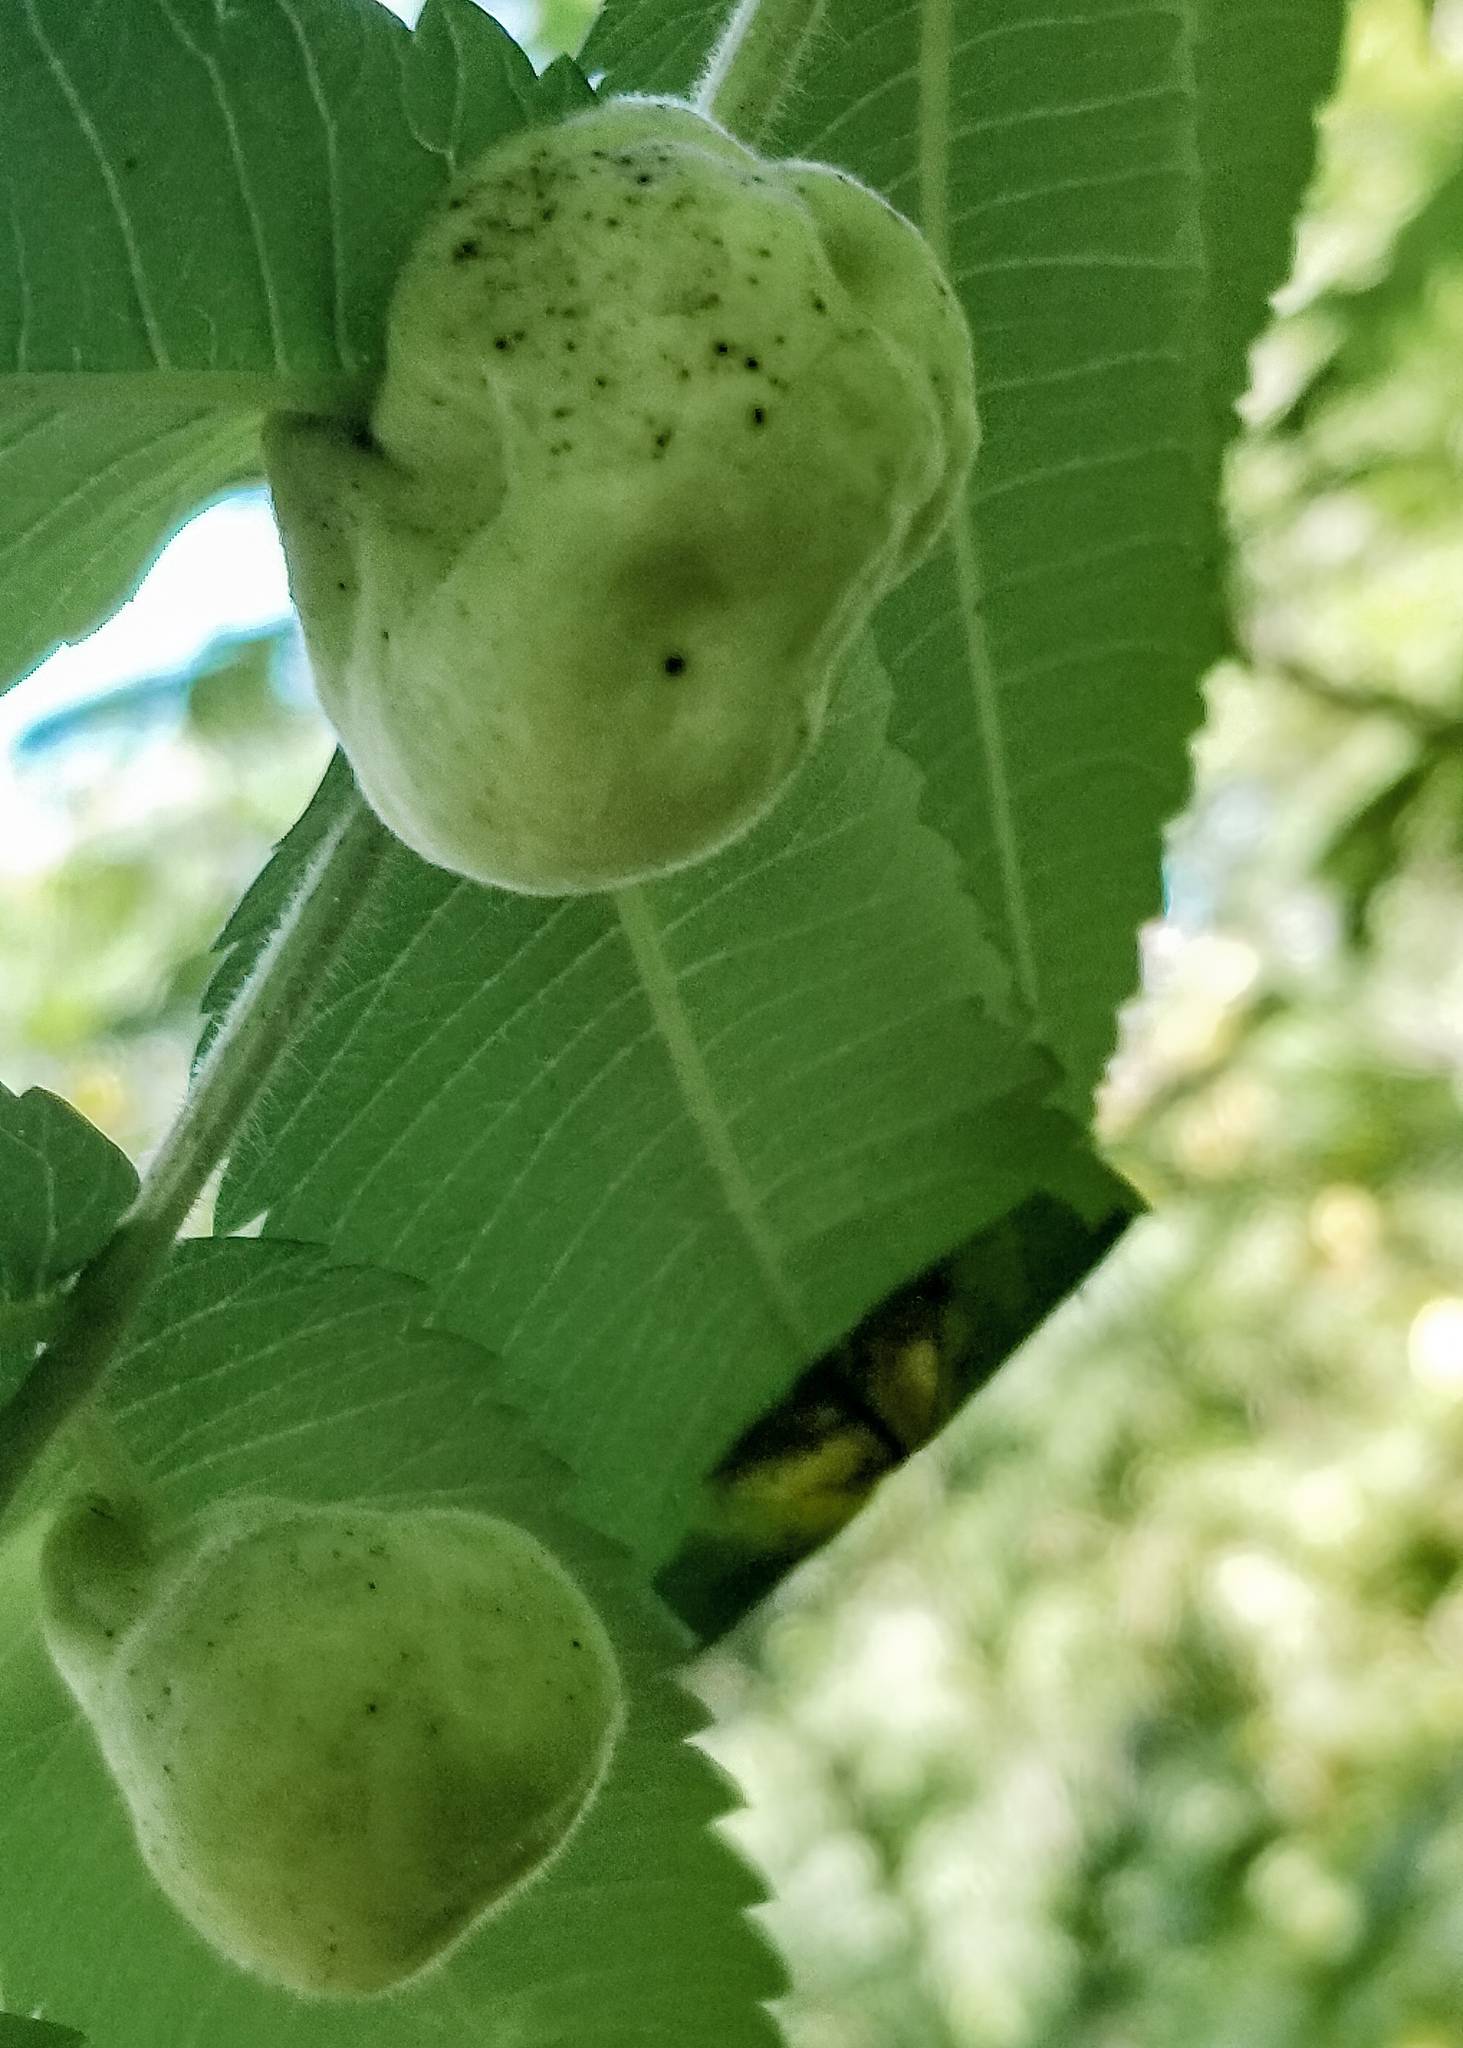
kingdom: Animalia
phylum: Arthropoda
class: Insecta
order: Hemiptera
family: Aphididae
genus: Melaphis
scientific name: Melaphis rhois
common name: Sumac gall aphid
